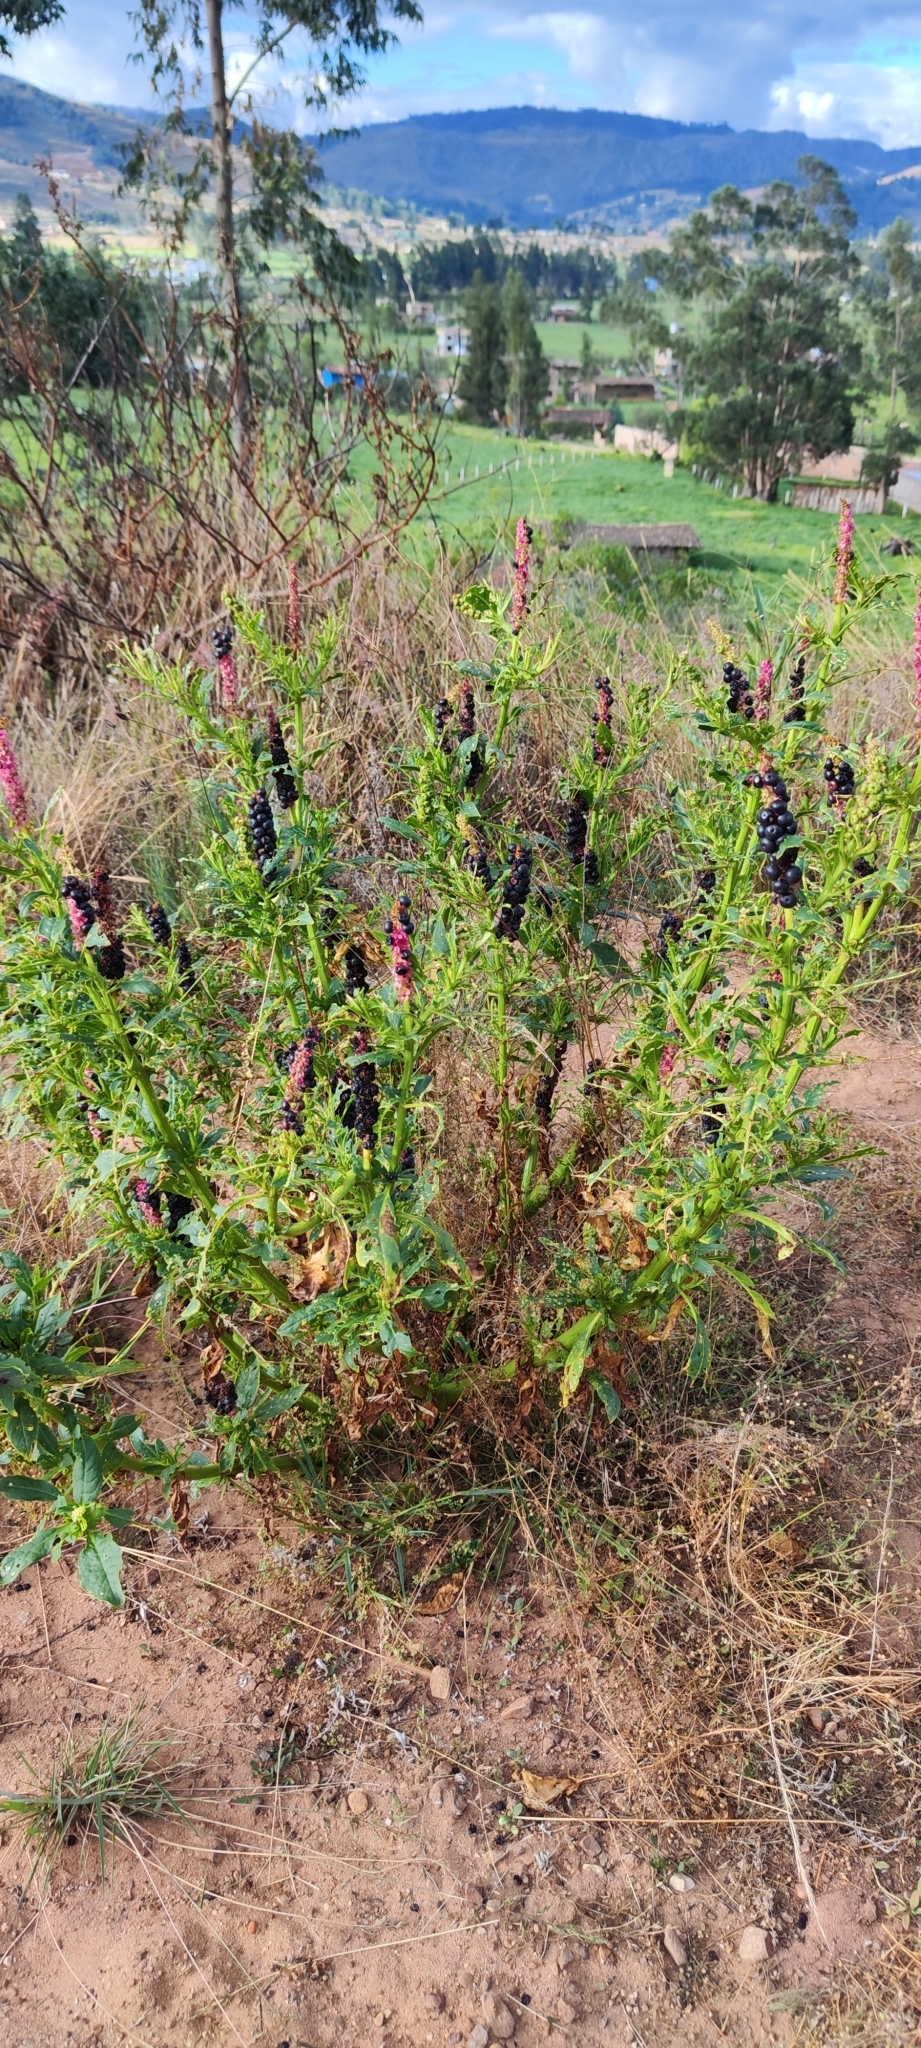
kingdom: Plantae
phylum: Tracheophyta
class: Magnoliopsida
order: Caryophyllales
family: Phytolaccaceae
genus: Phytolacca
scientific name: Phytolacca icosandra
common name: Button pokeweed
